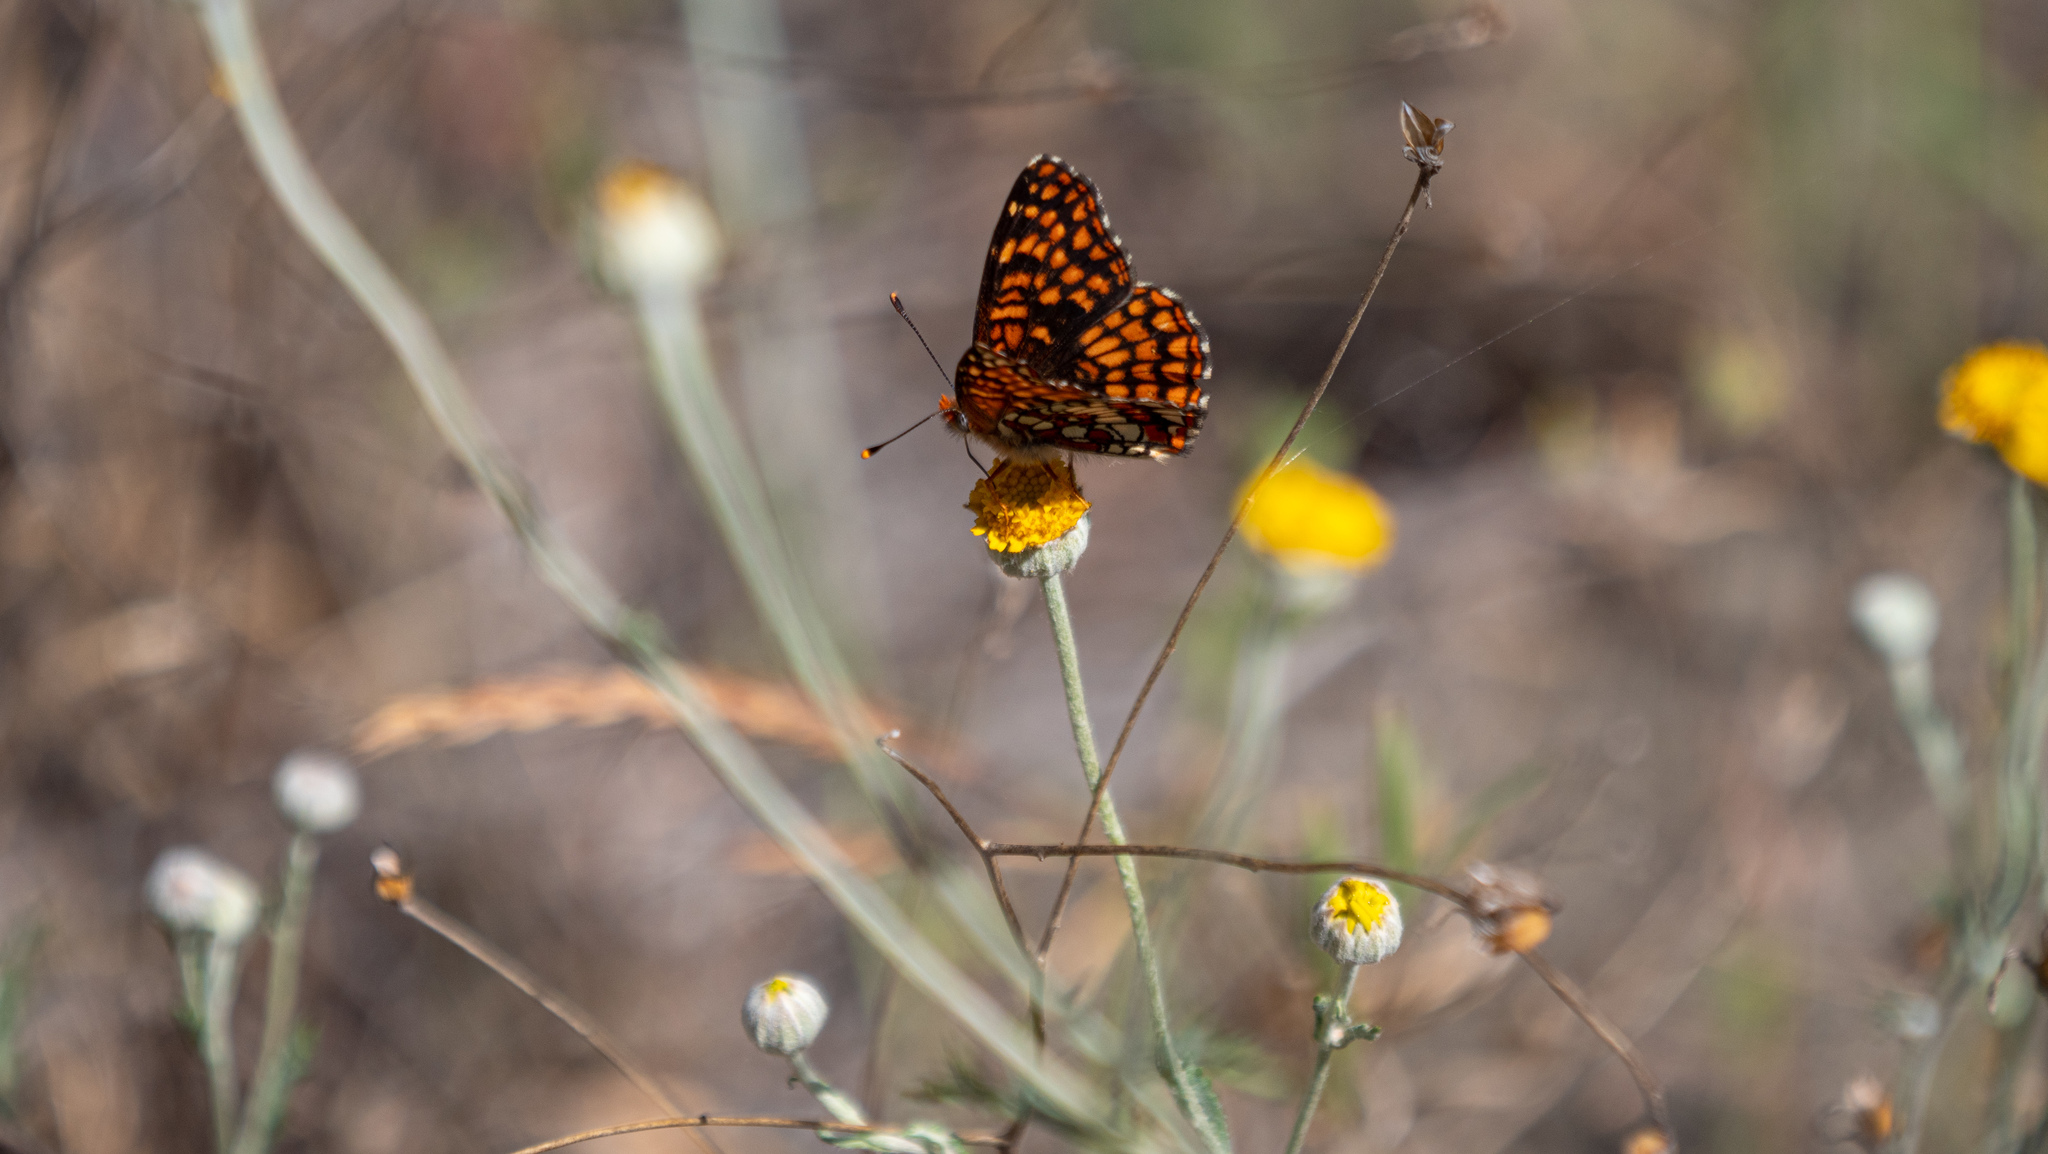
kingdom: Animalia
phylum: Arthropoda
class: Insecta
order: Lepidoptera
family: Nymphalidae
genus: Chlosyne
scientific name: Chlosyne palla
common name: Northern checkerspot
